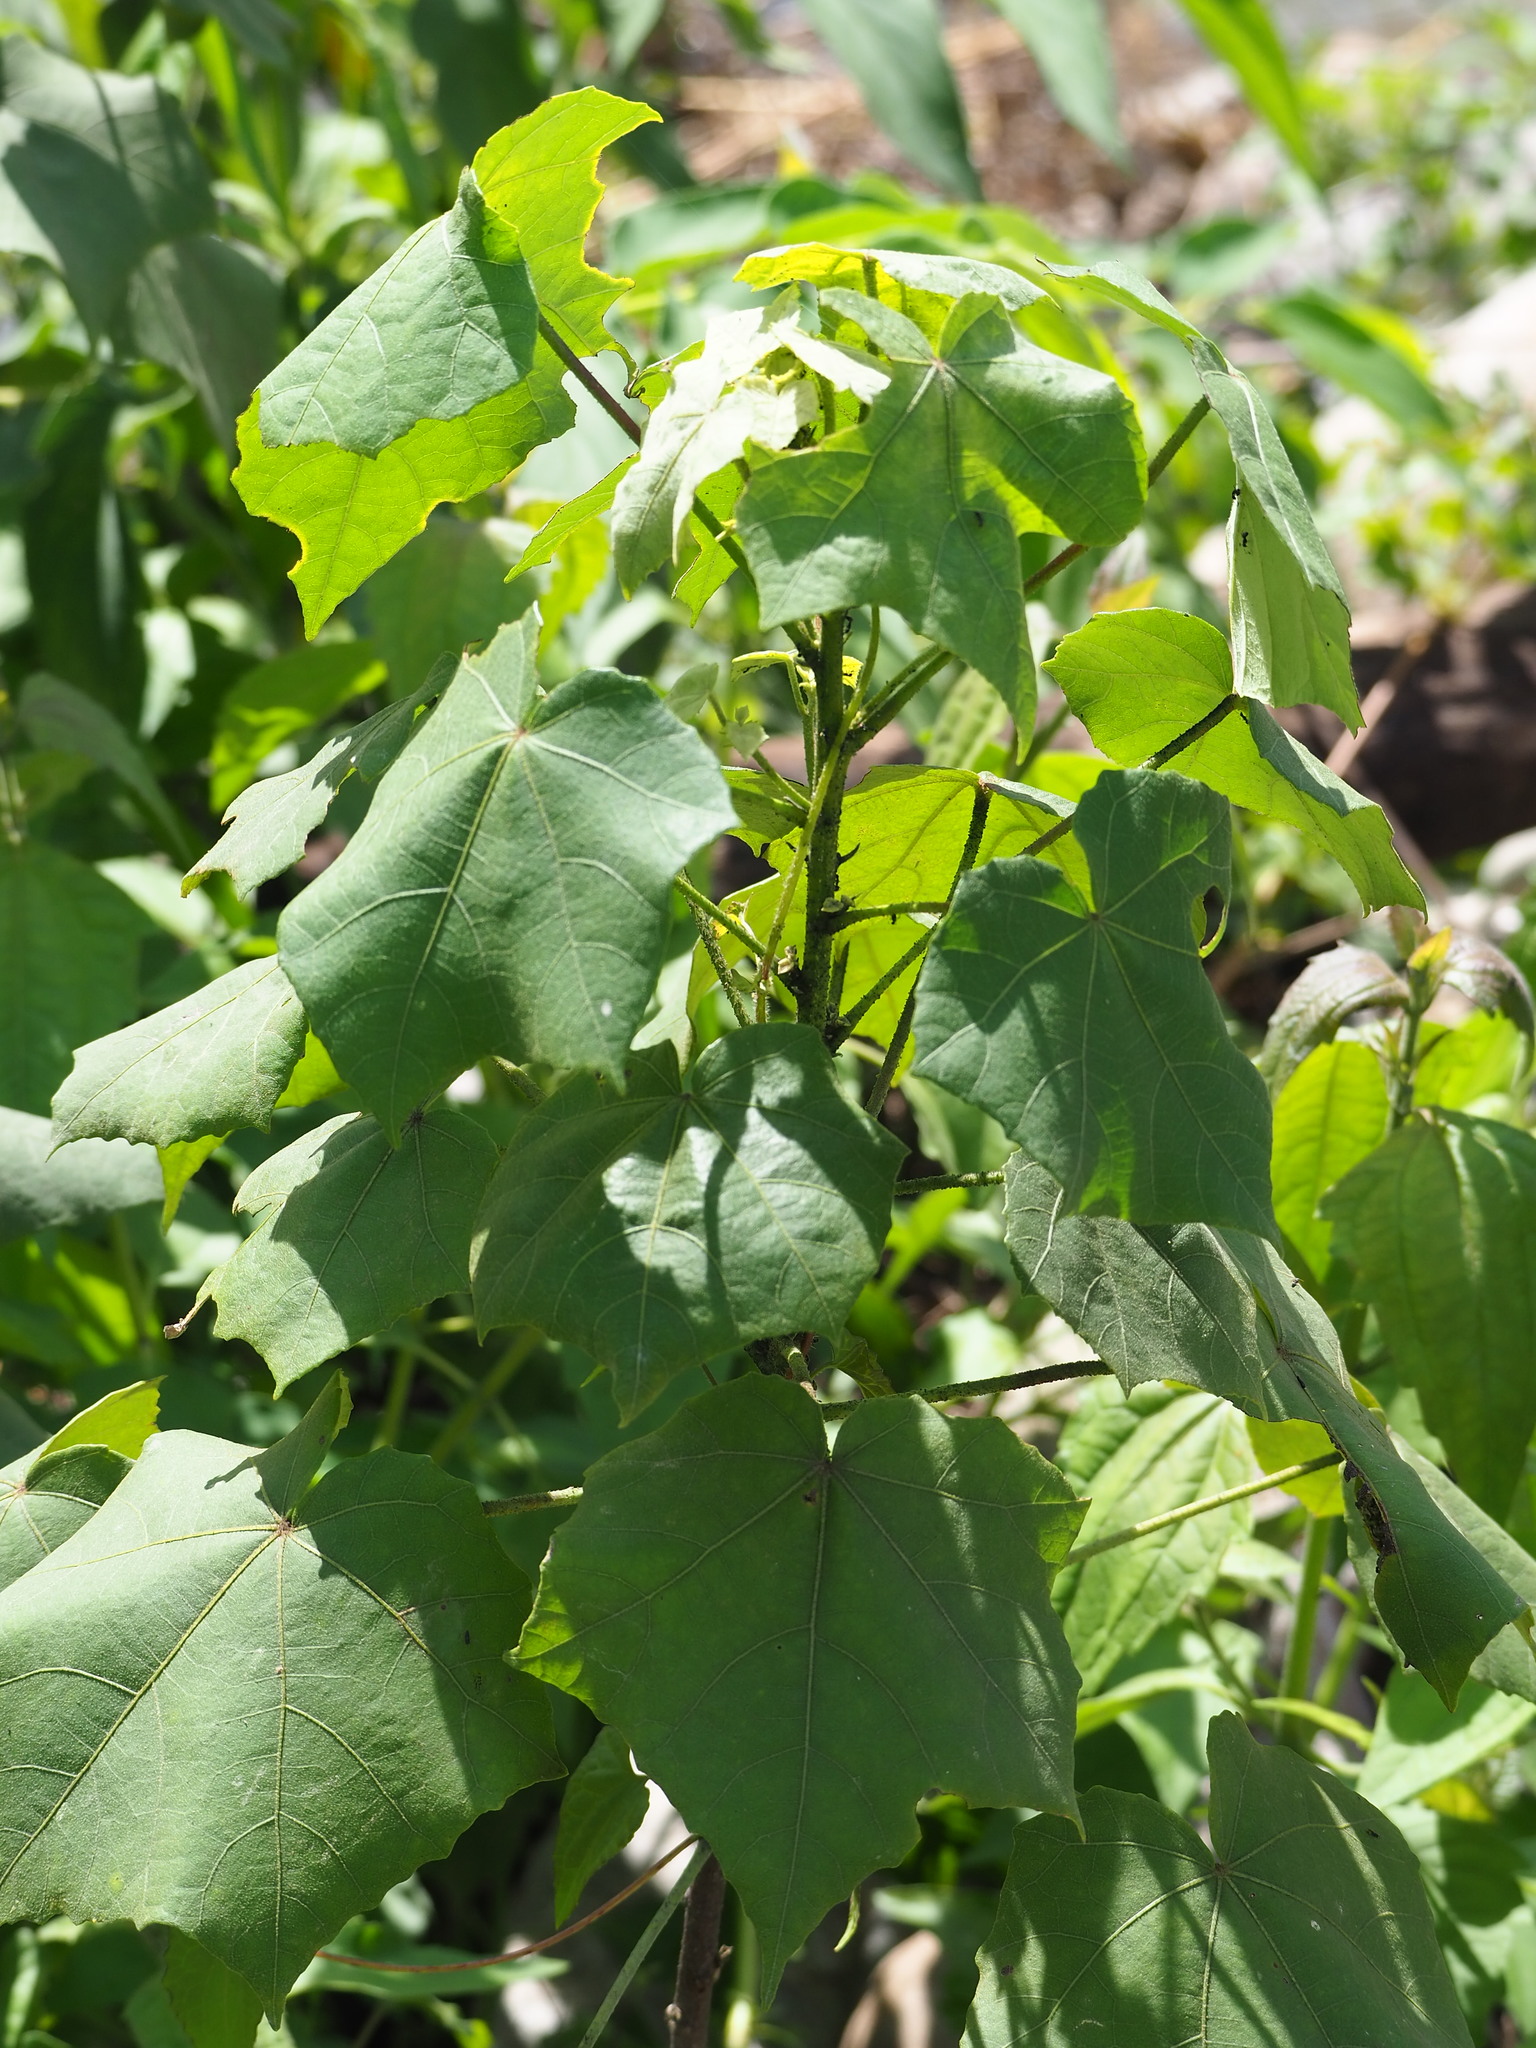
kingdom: Plantae
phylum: Tracheophyta
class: Magnoliopsida
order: Malvales
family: Malvaceae
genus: Hibiscus
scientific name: Hibiscus taiwanensis
